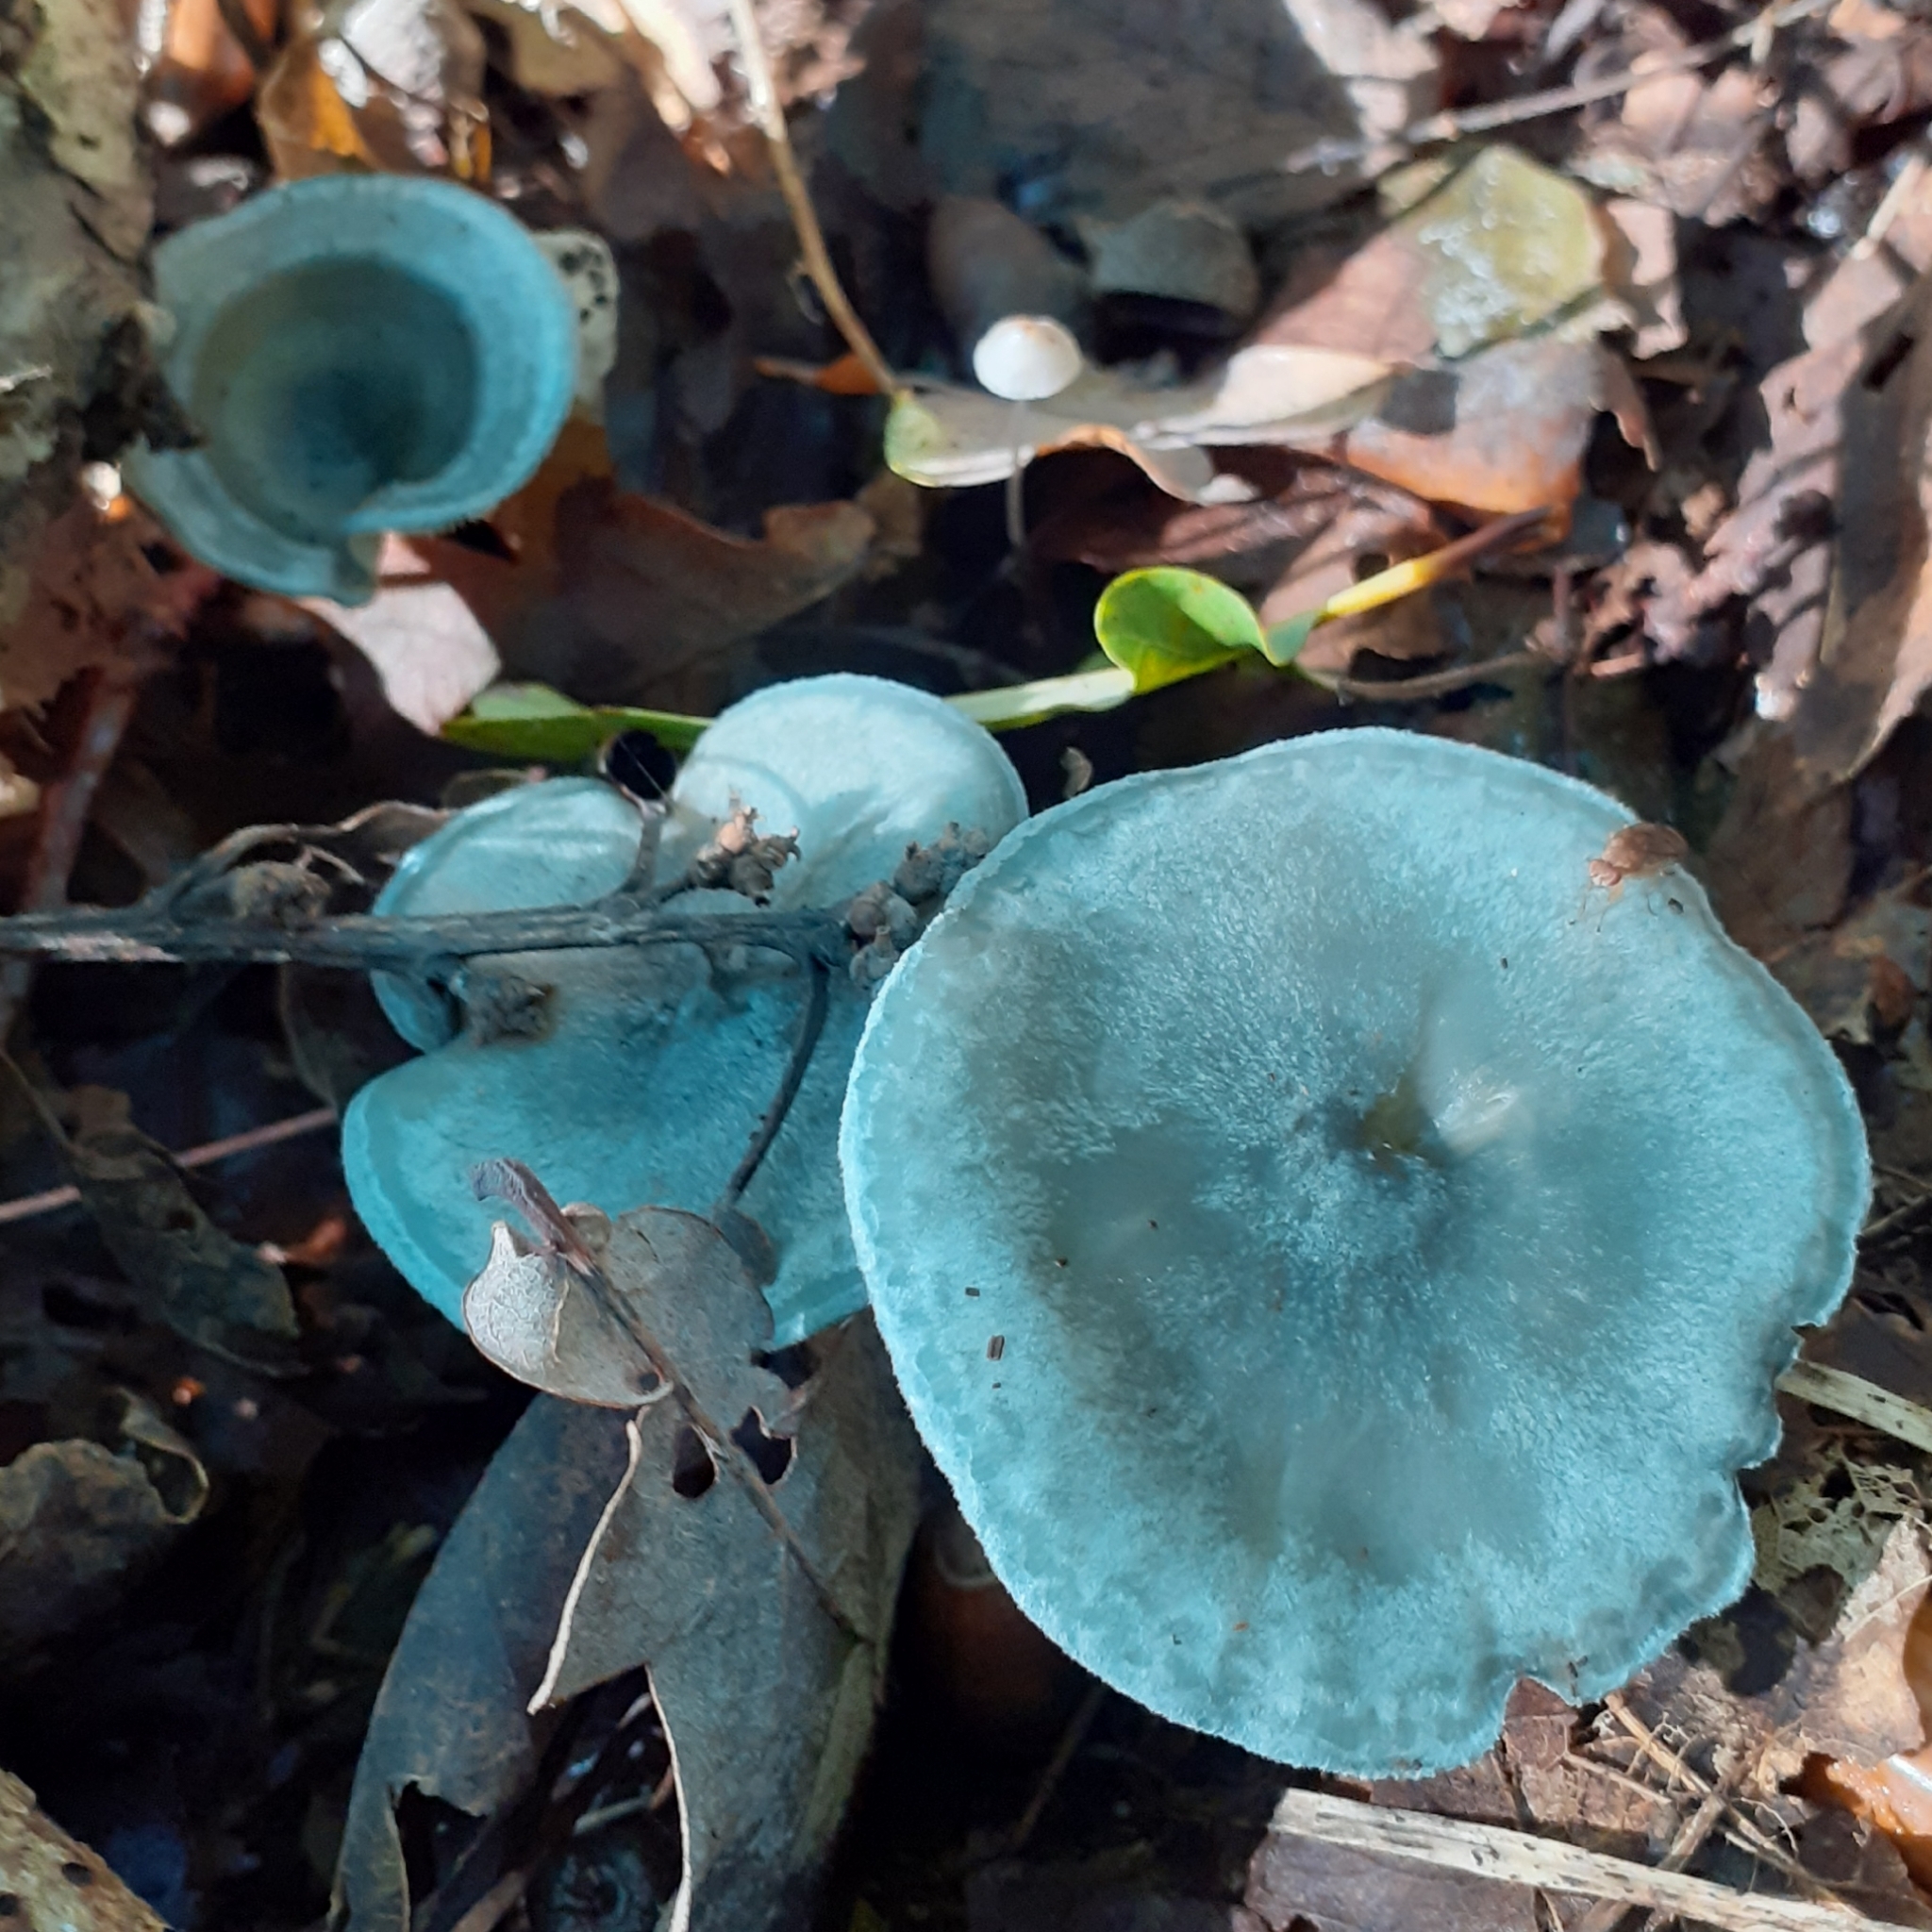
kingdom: Fungi
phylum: Basidiomycota
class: Agaricomycetes
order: Agaricales
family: Tricholomataceae
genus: Collybia
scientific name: Collybia
